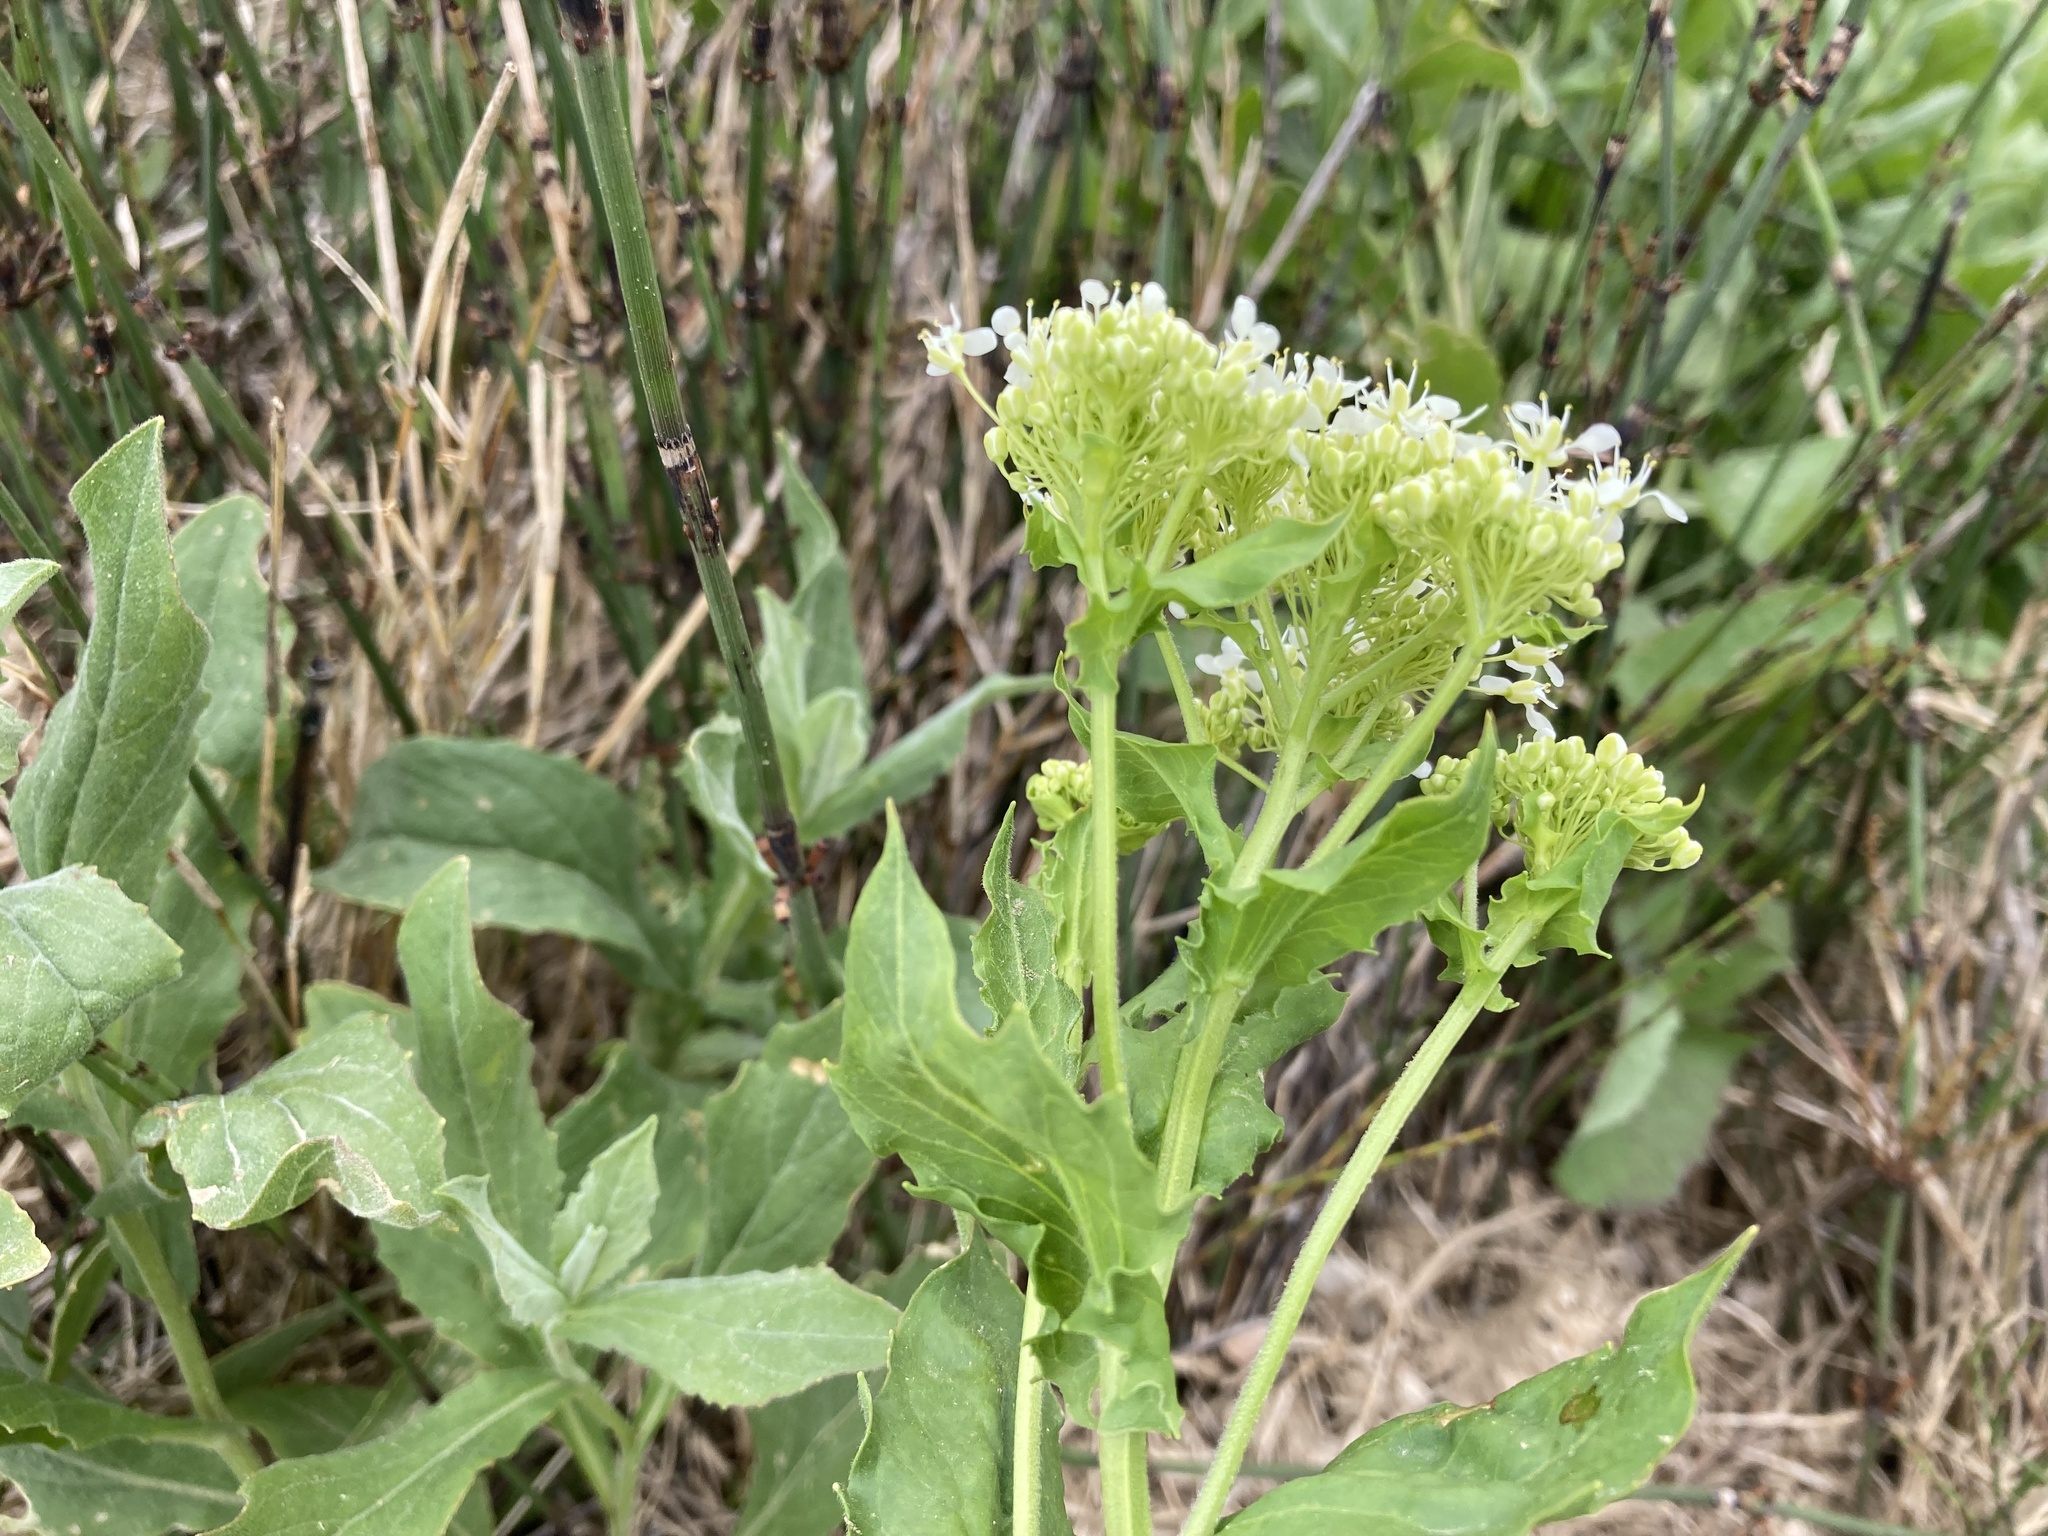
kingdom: Plantae
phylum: Tracheophyta
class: Magnoliopsida
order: Brassicales
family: Brassicaceae
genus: Lepidium
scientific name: Lepidium draba
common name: Hoary cress
